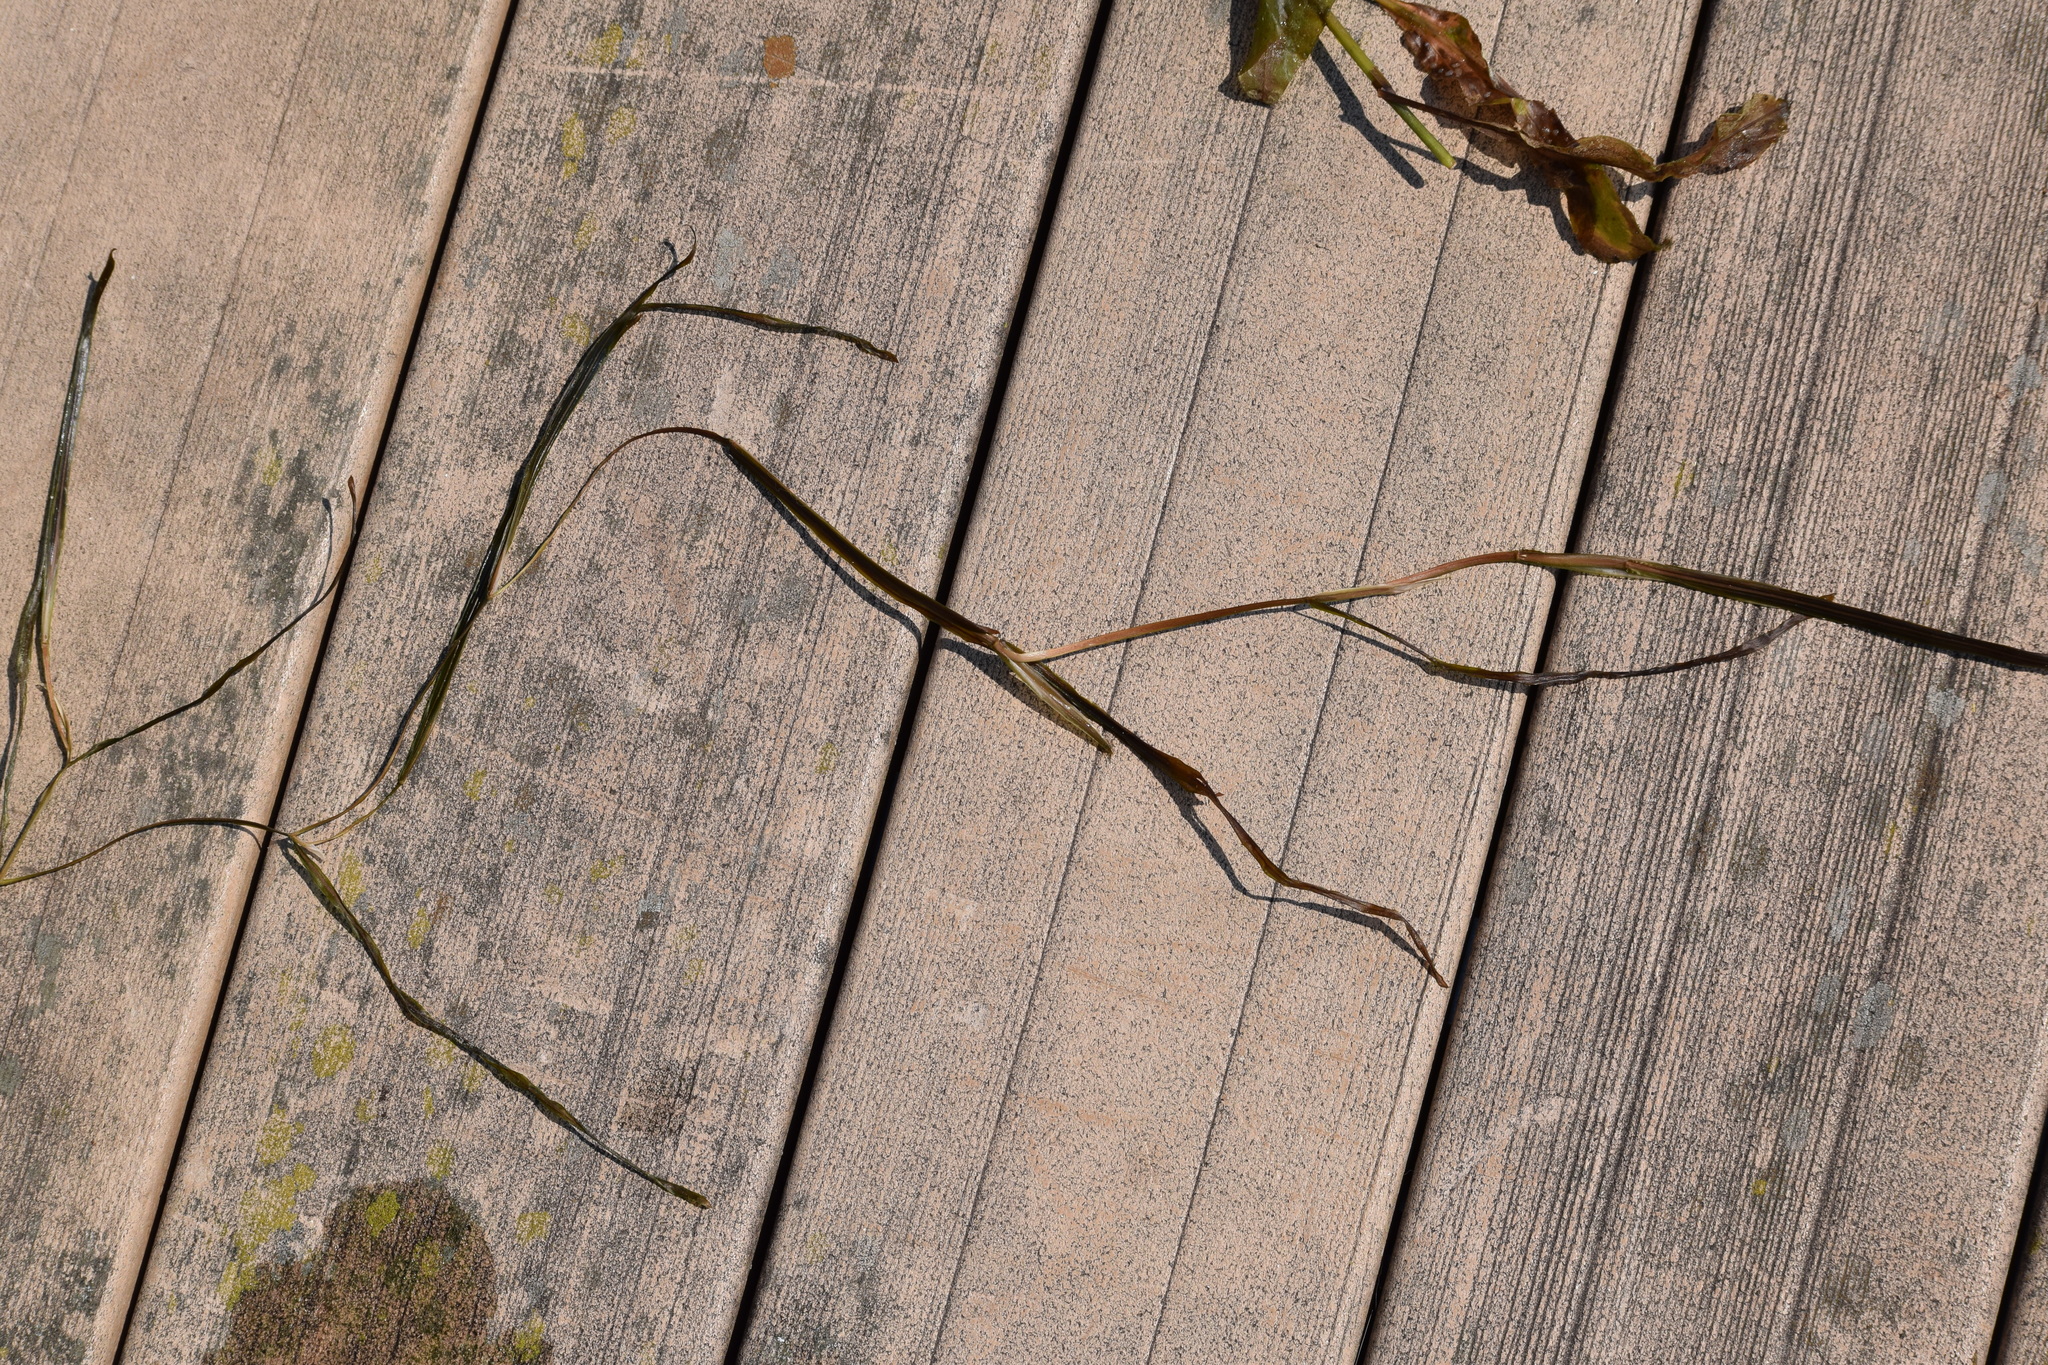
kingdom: Plantae
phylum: Tracheophyta
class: Liliopsida
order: Alismatales
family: Potamogetonaceae
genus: Potamogeton
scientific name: Potamogeton zosteriformis
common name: Eelgrass pondweed
